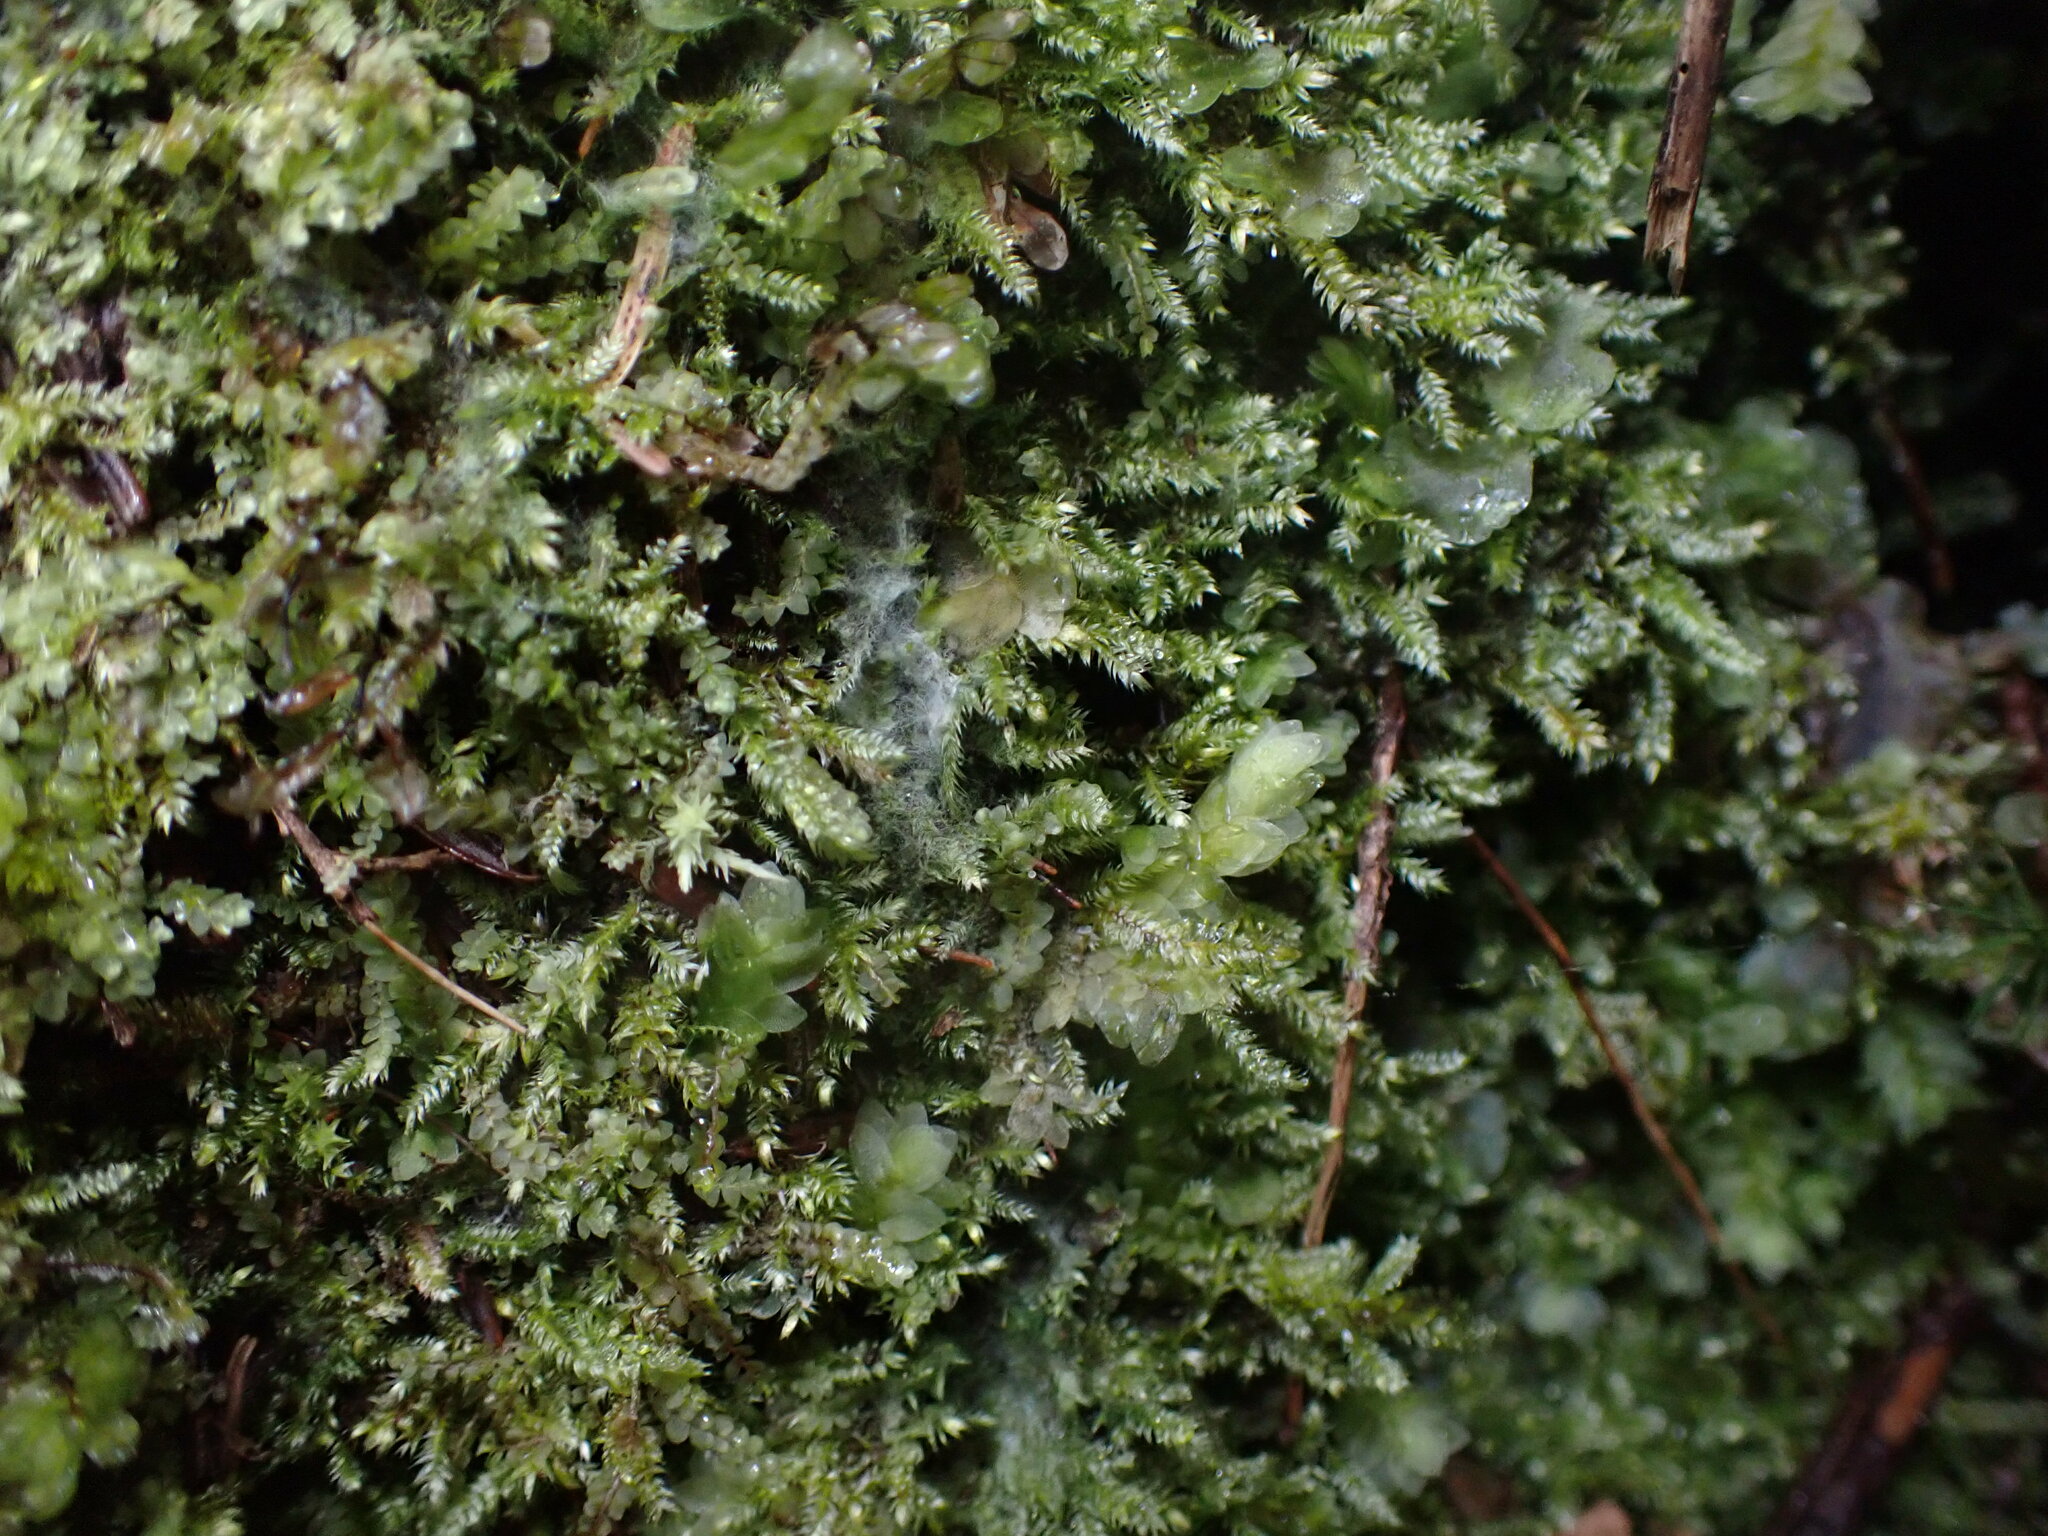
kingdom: Plantae
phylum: Bryophyta
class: Bryopsida
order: Hypnales
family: Plagiotheciaceae
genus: Pseudotaxiphyllum
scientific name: Pseudotaxiphyllum elegans
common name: Elegant silk moss
